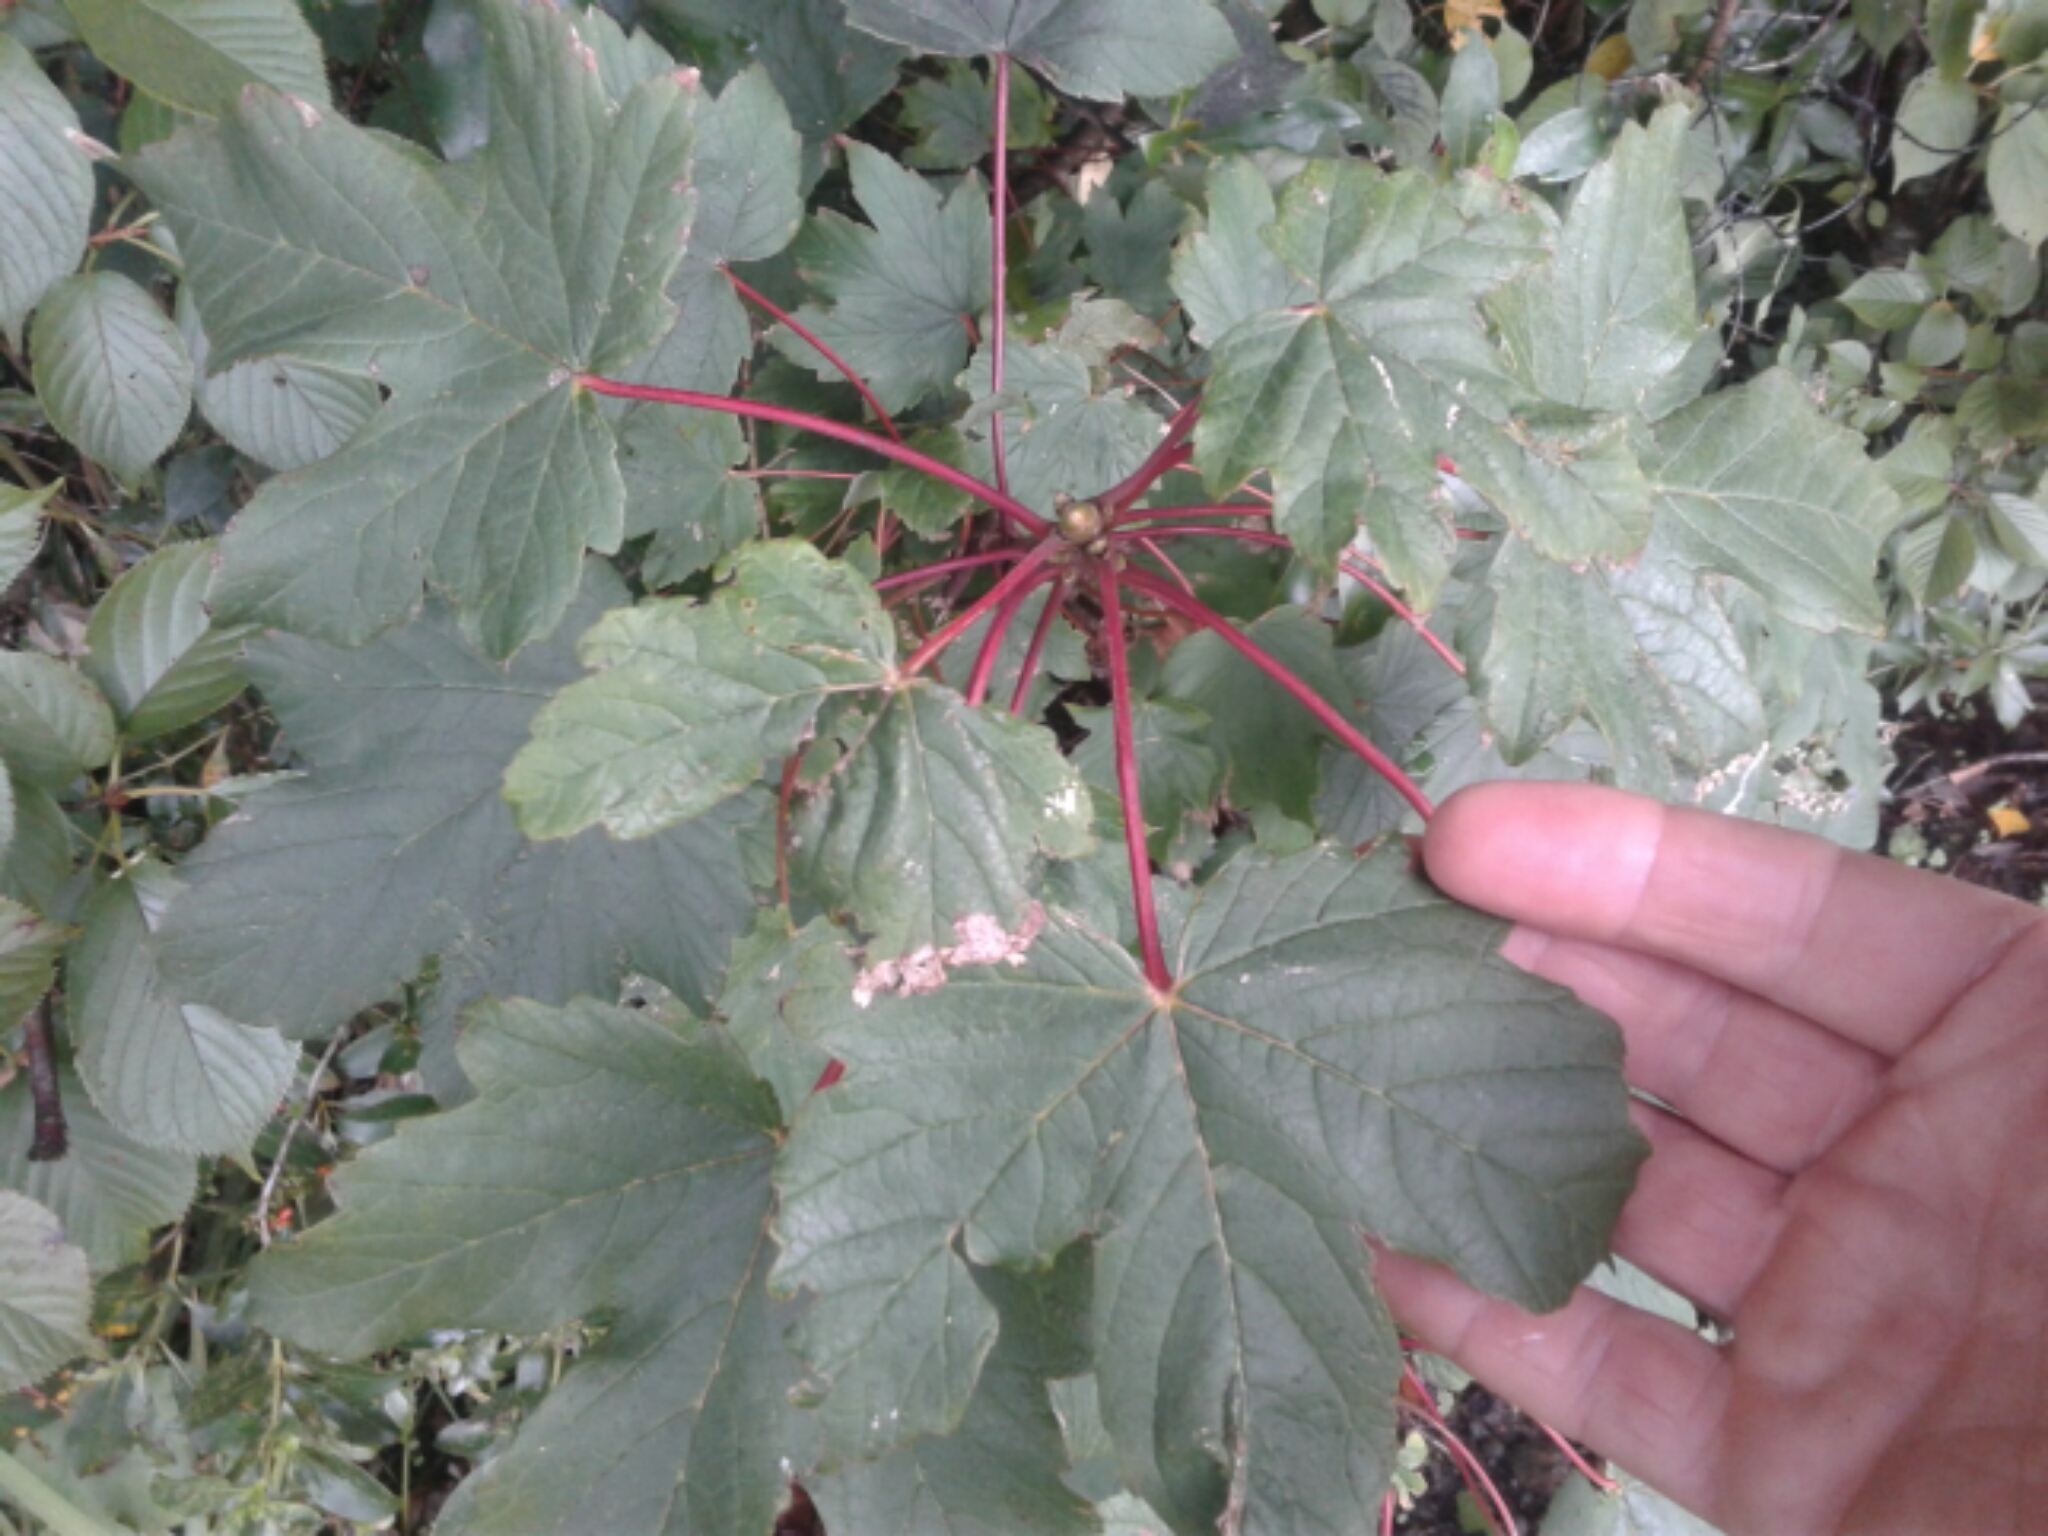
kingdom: Plantae
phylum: Tracheophyta
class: Magnoliopsida
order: Sapindales
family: Sapindaceae
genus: Acer
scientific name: Acer pseudoplatanus
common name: Sycamore
